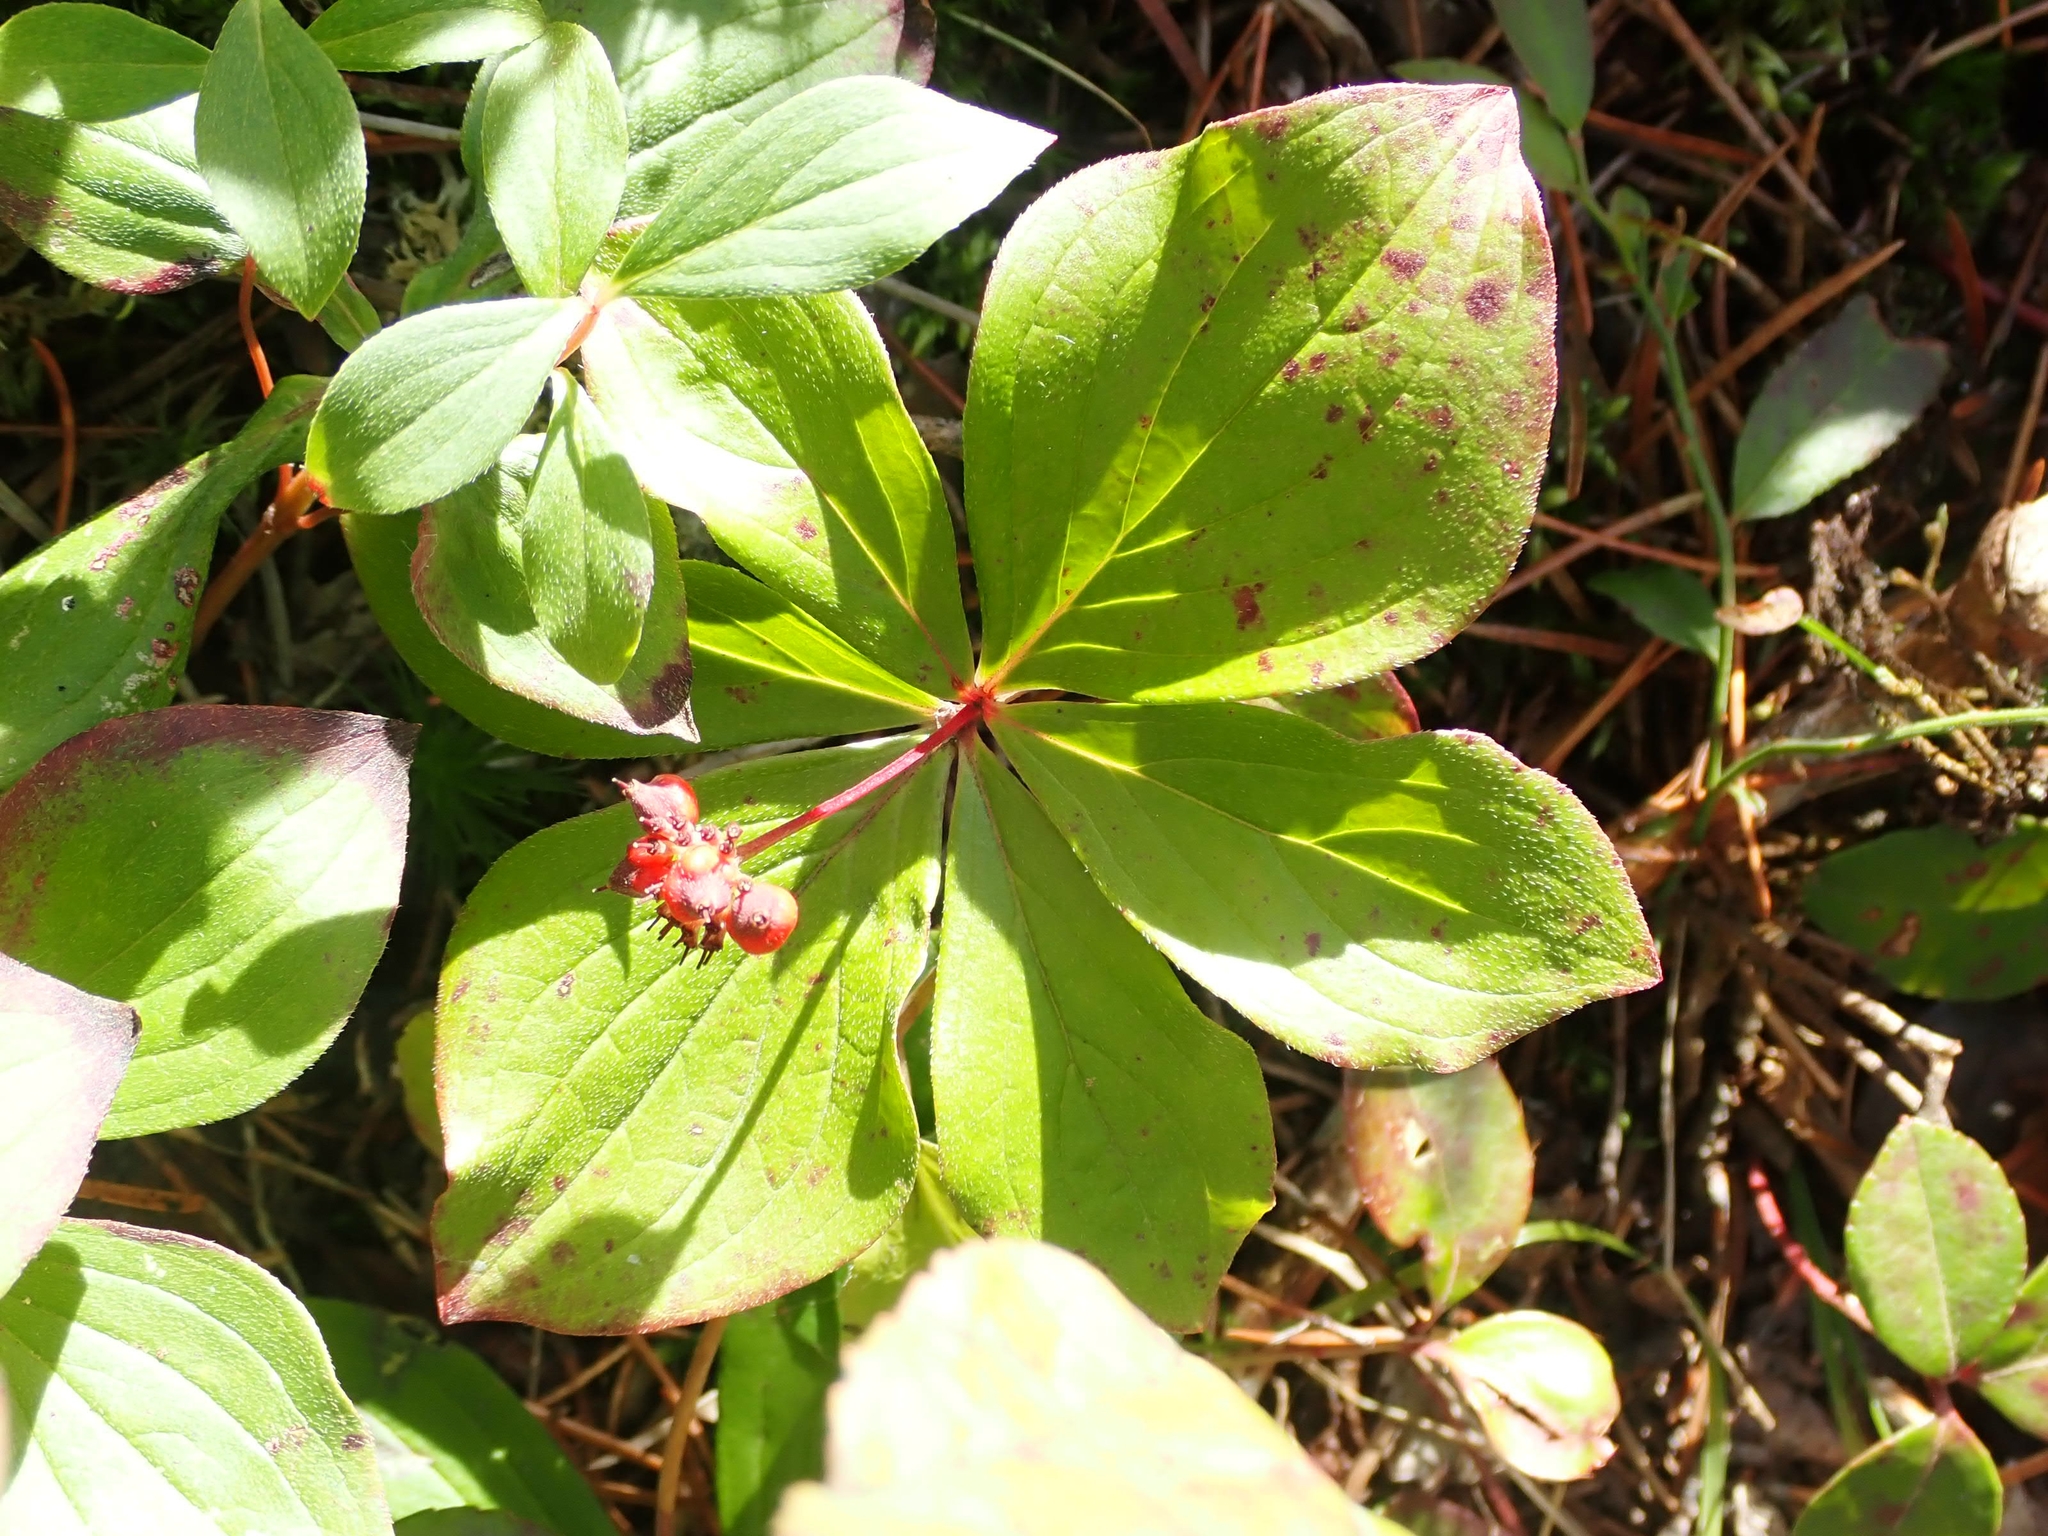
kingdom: Plantae
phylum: Tracheophyta
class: Magnoliopsida
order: Cornales
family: Cornaceae
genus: Cornus
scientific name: Cornus canadensis
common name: Creeping dogwood
